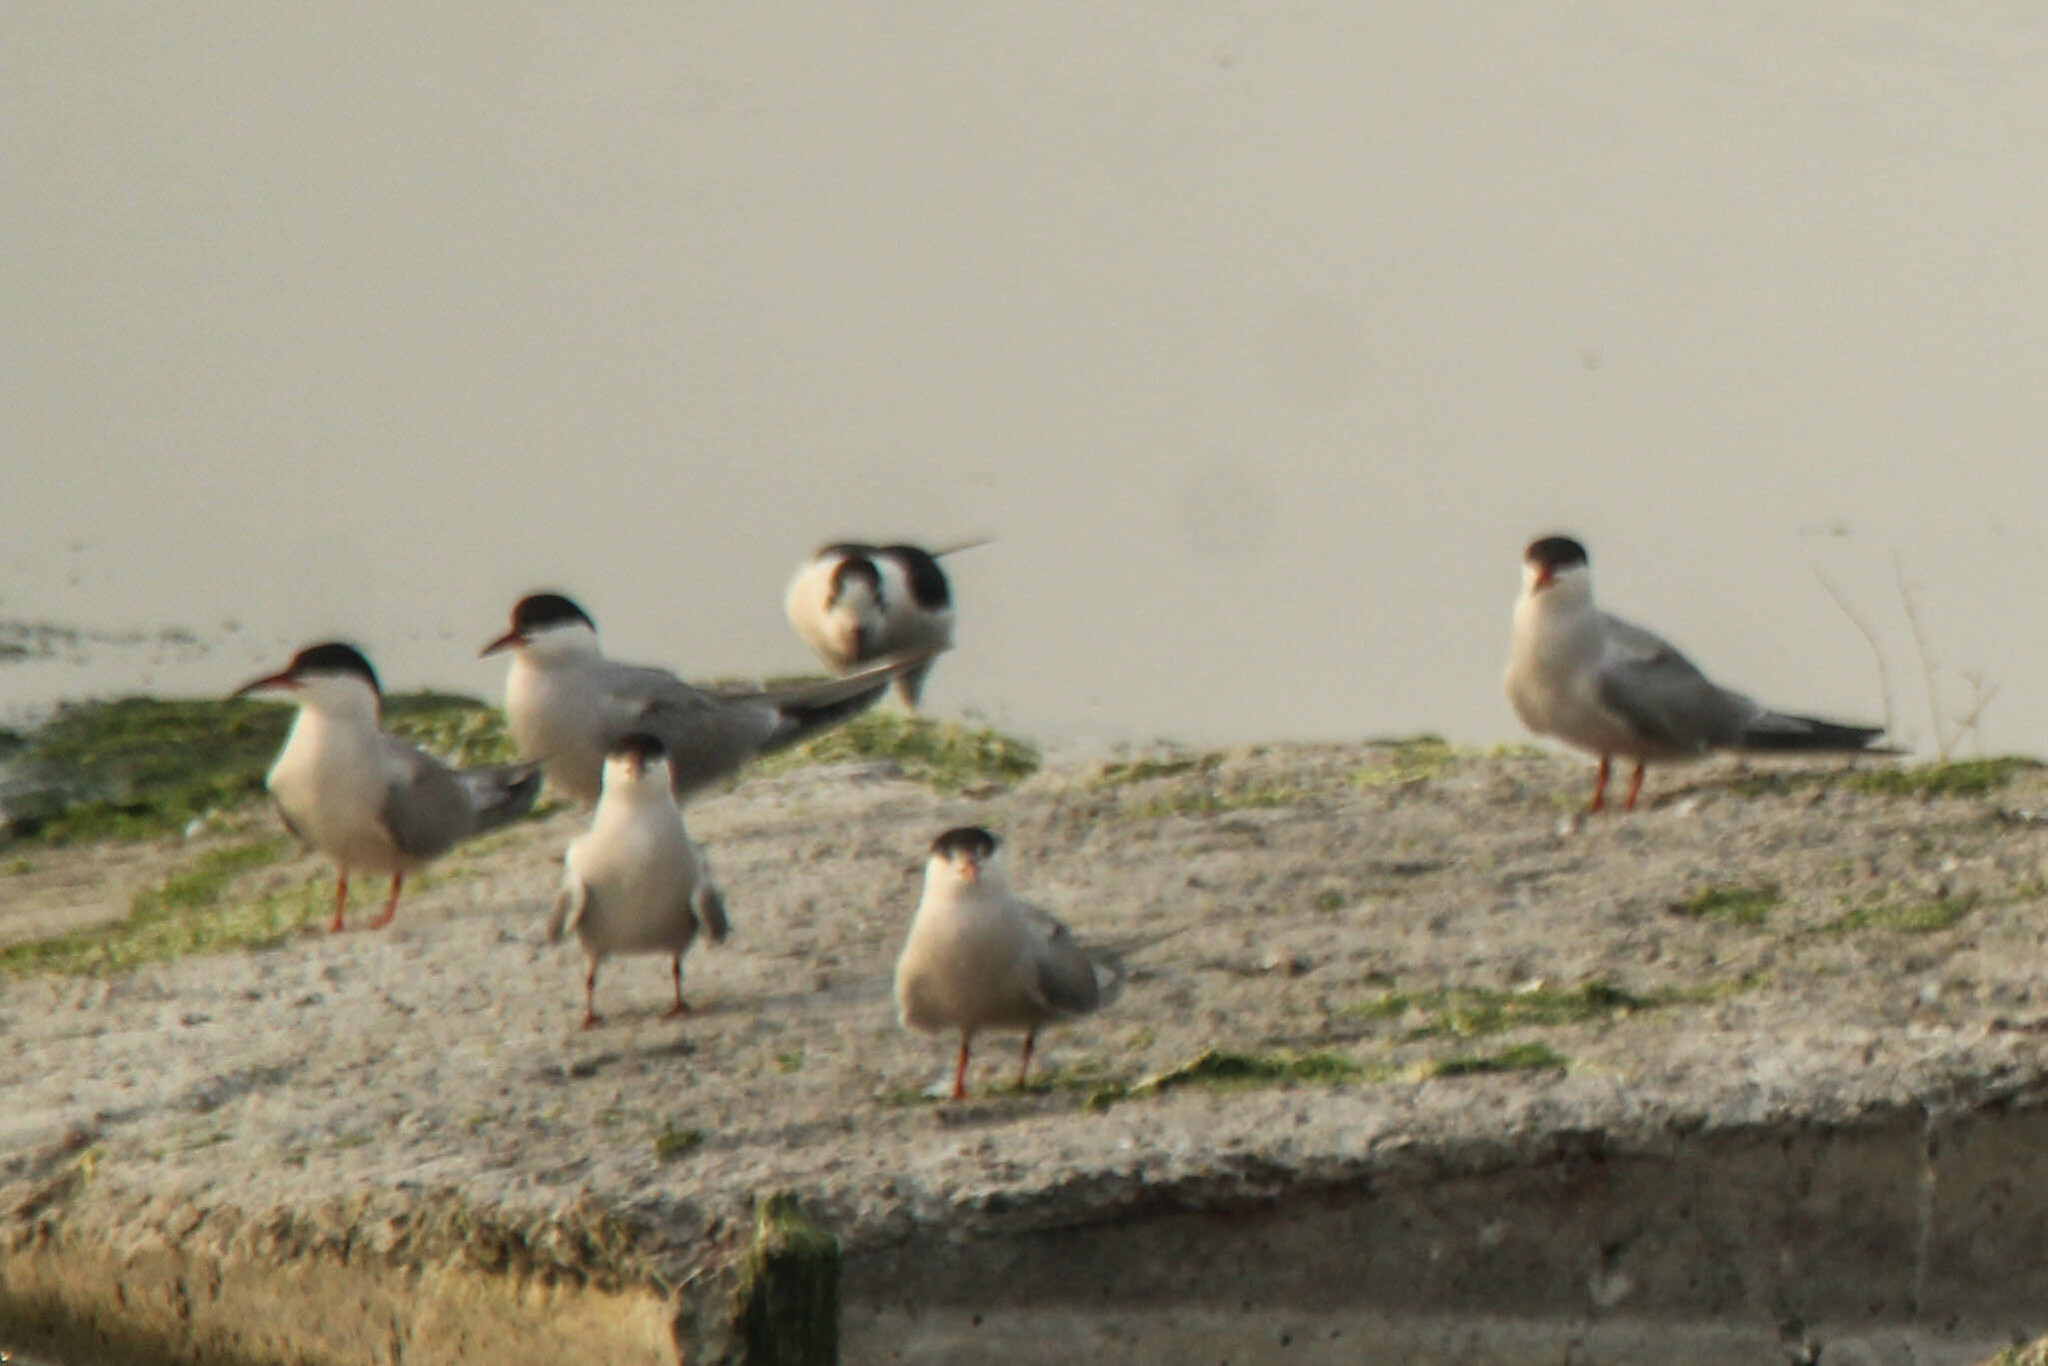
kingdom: Animalia
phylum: Chordata
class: Aves
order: Charadriiformes
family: Laridae
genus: Sterna
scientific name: Sterna hirundo
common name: Common tern
